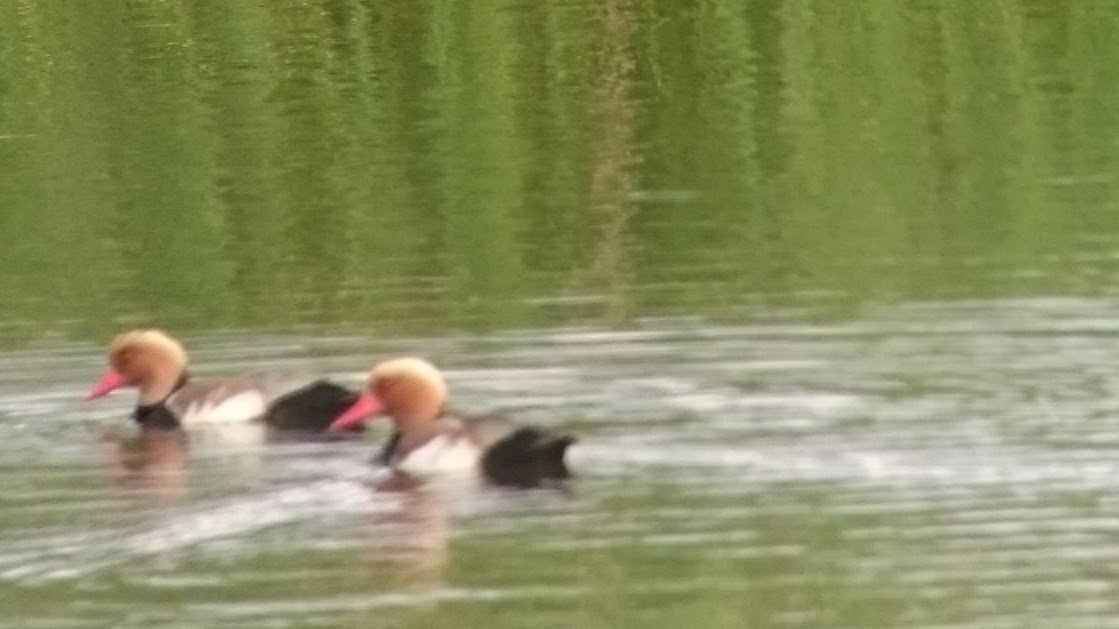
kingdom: Animalia
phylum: Chordata
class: Aves
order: Anseriformes
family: Anatidae
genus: Netta
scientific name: Netta rufina
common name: Red-crested pochard
